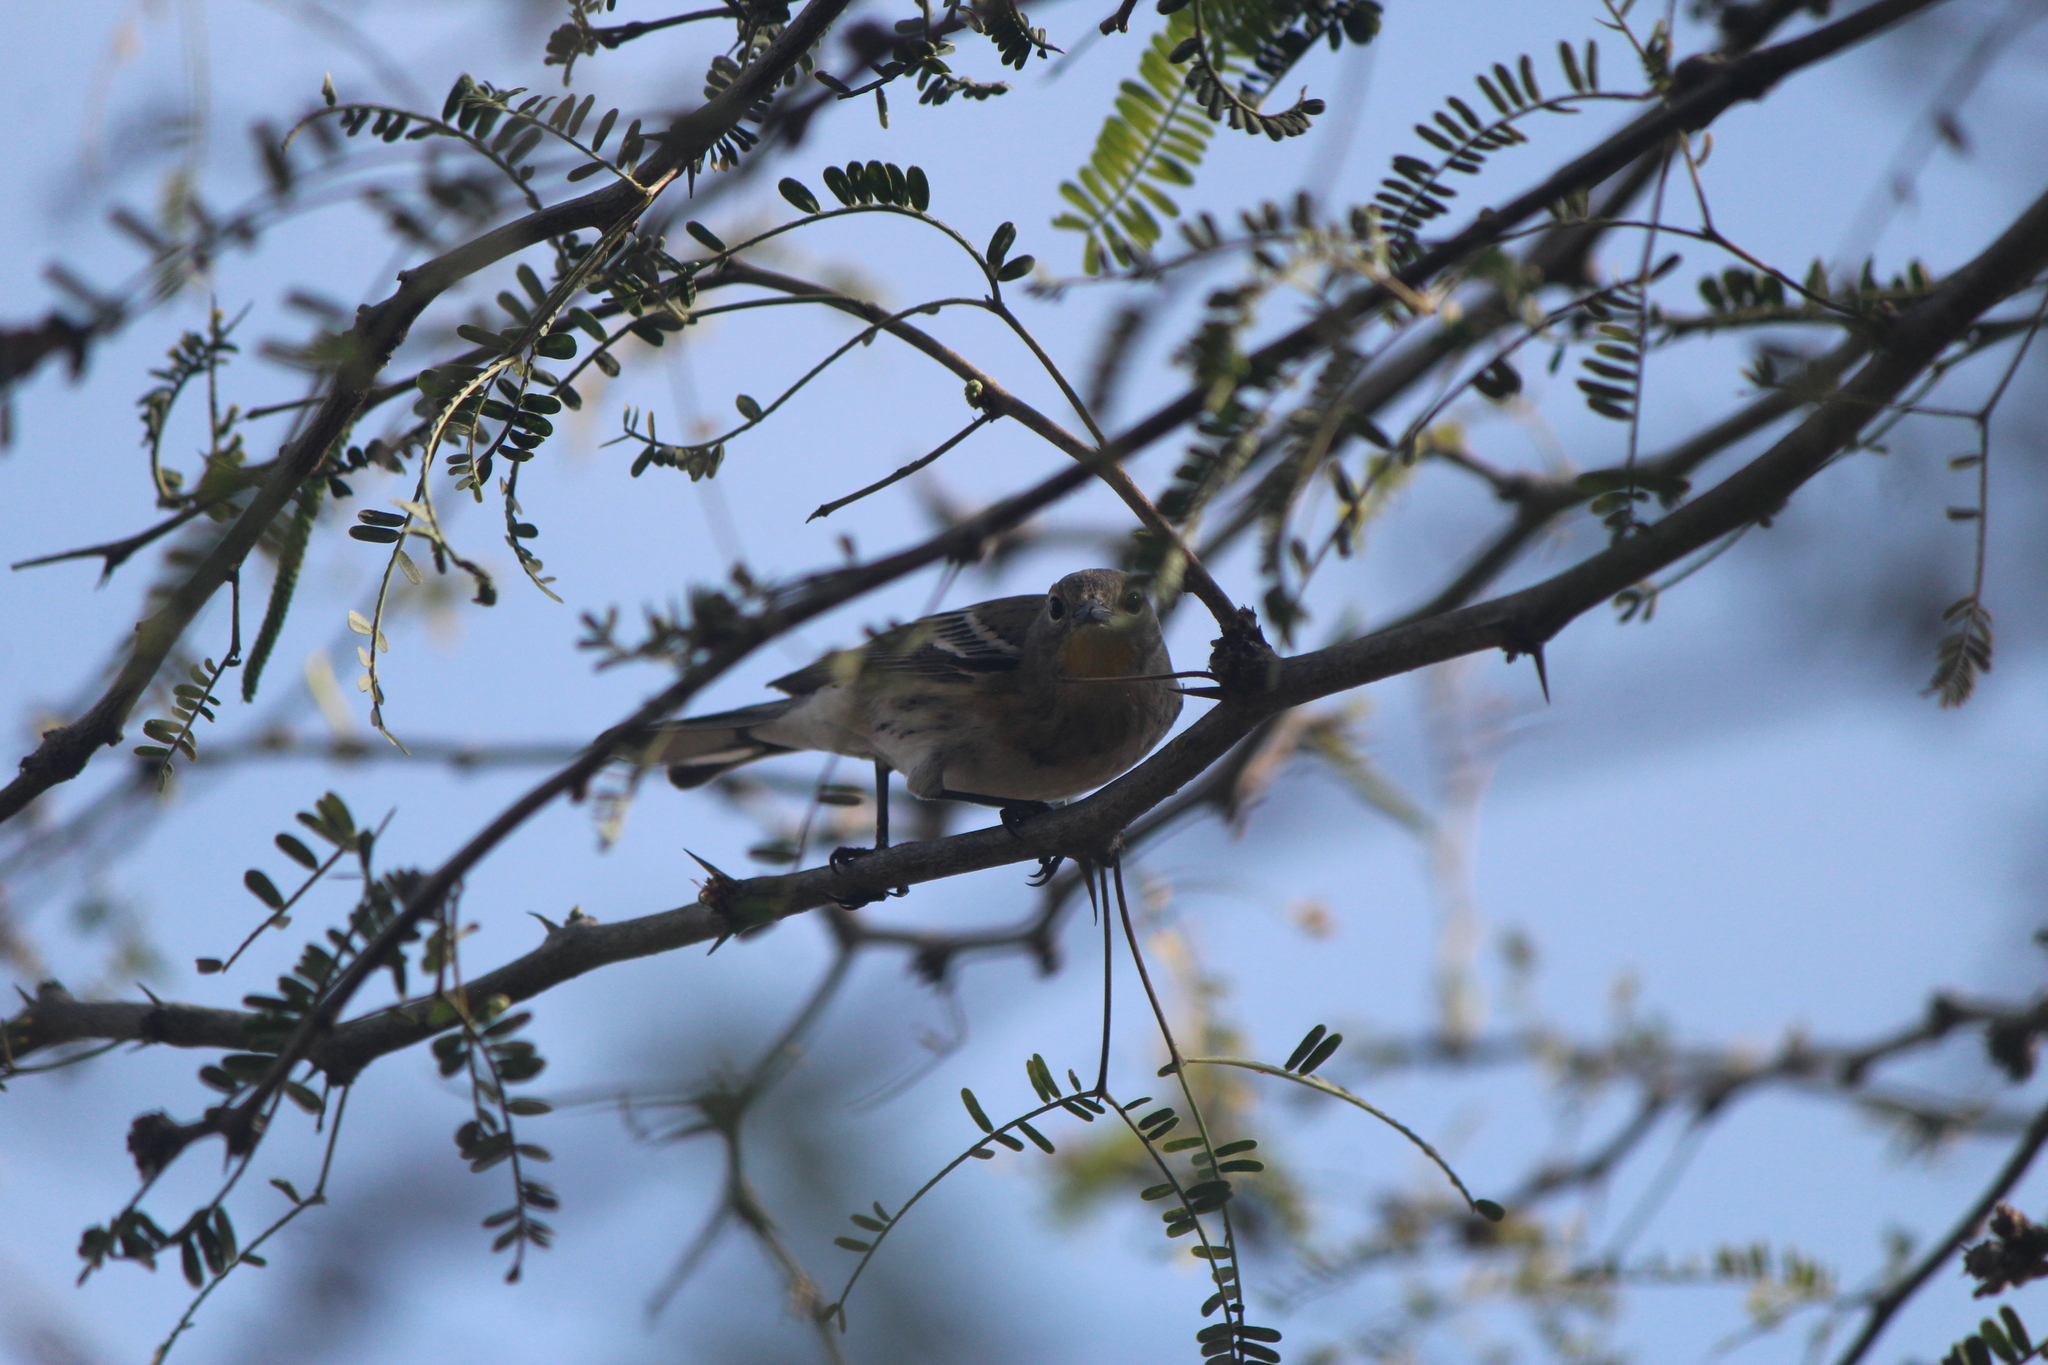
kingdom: Animalia
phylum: Chordata
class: Aves
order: Passeriformes
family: Parulidae
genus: Setophaga
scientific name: Setophaga coronata
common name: Myrtle warbler
